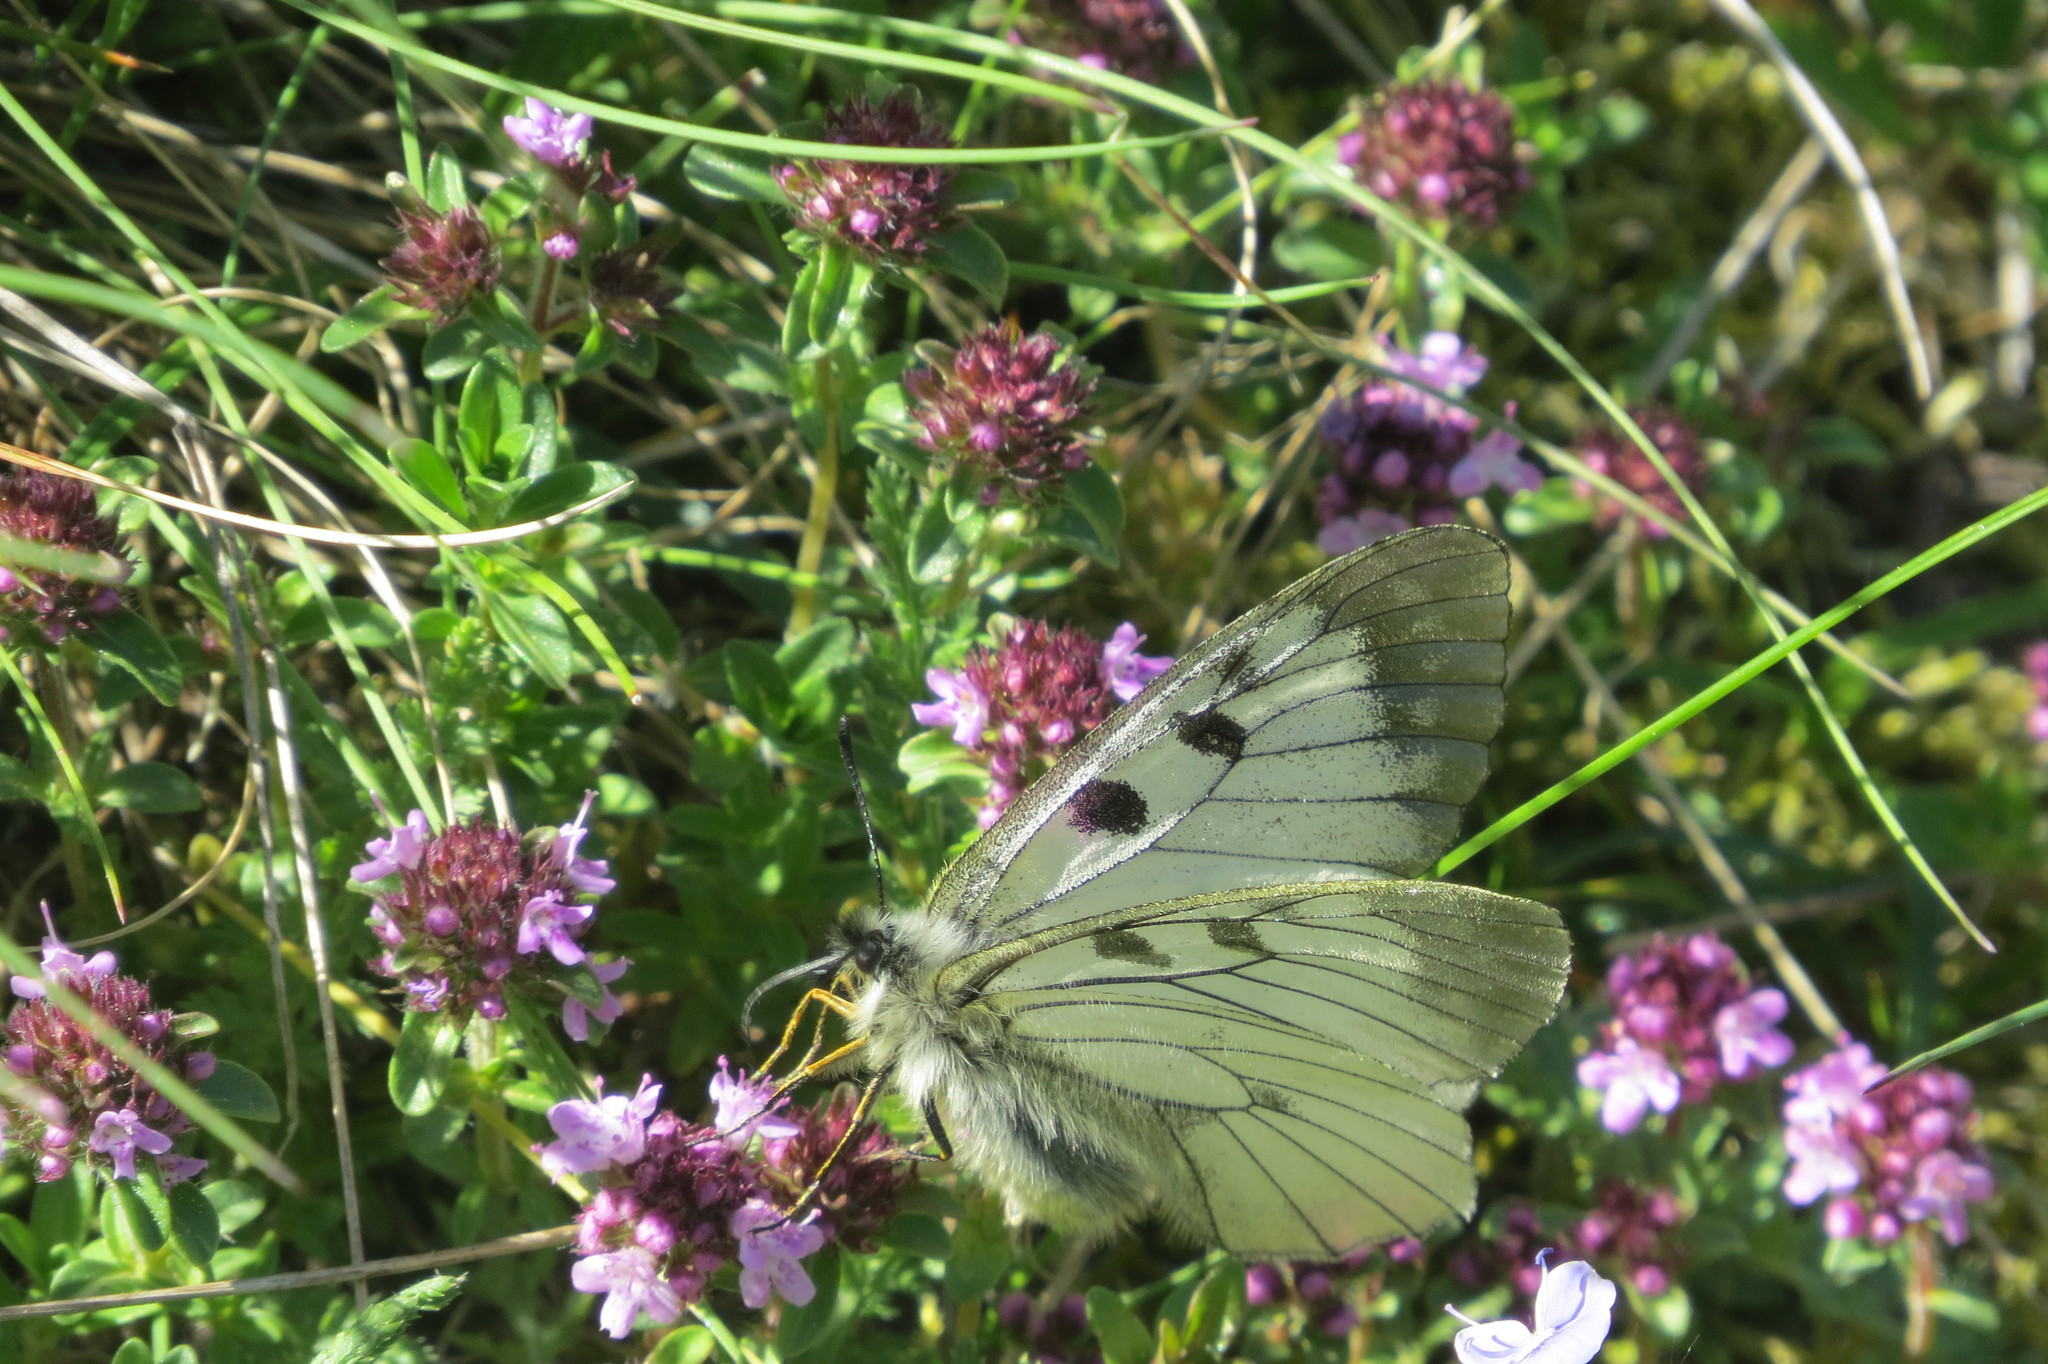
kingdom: Animalia
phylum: Arthropoda
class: Insecta
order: Lepidoptera
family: Papilionidae
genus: Parnassius
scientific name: Parnassius mnemosyne
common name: Clouded apollo
